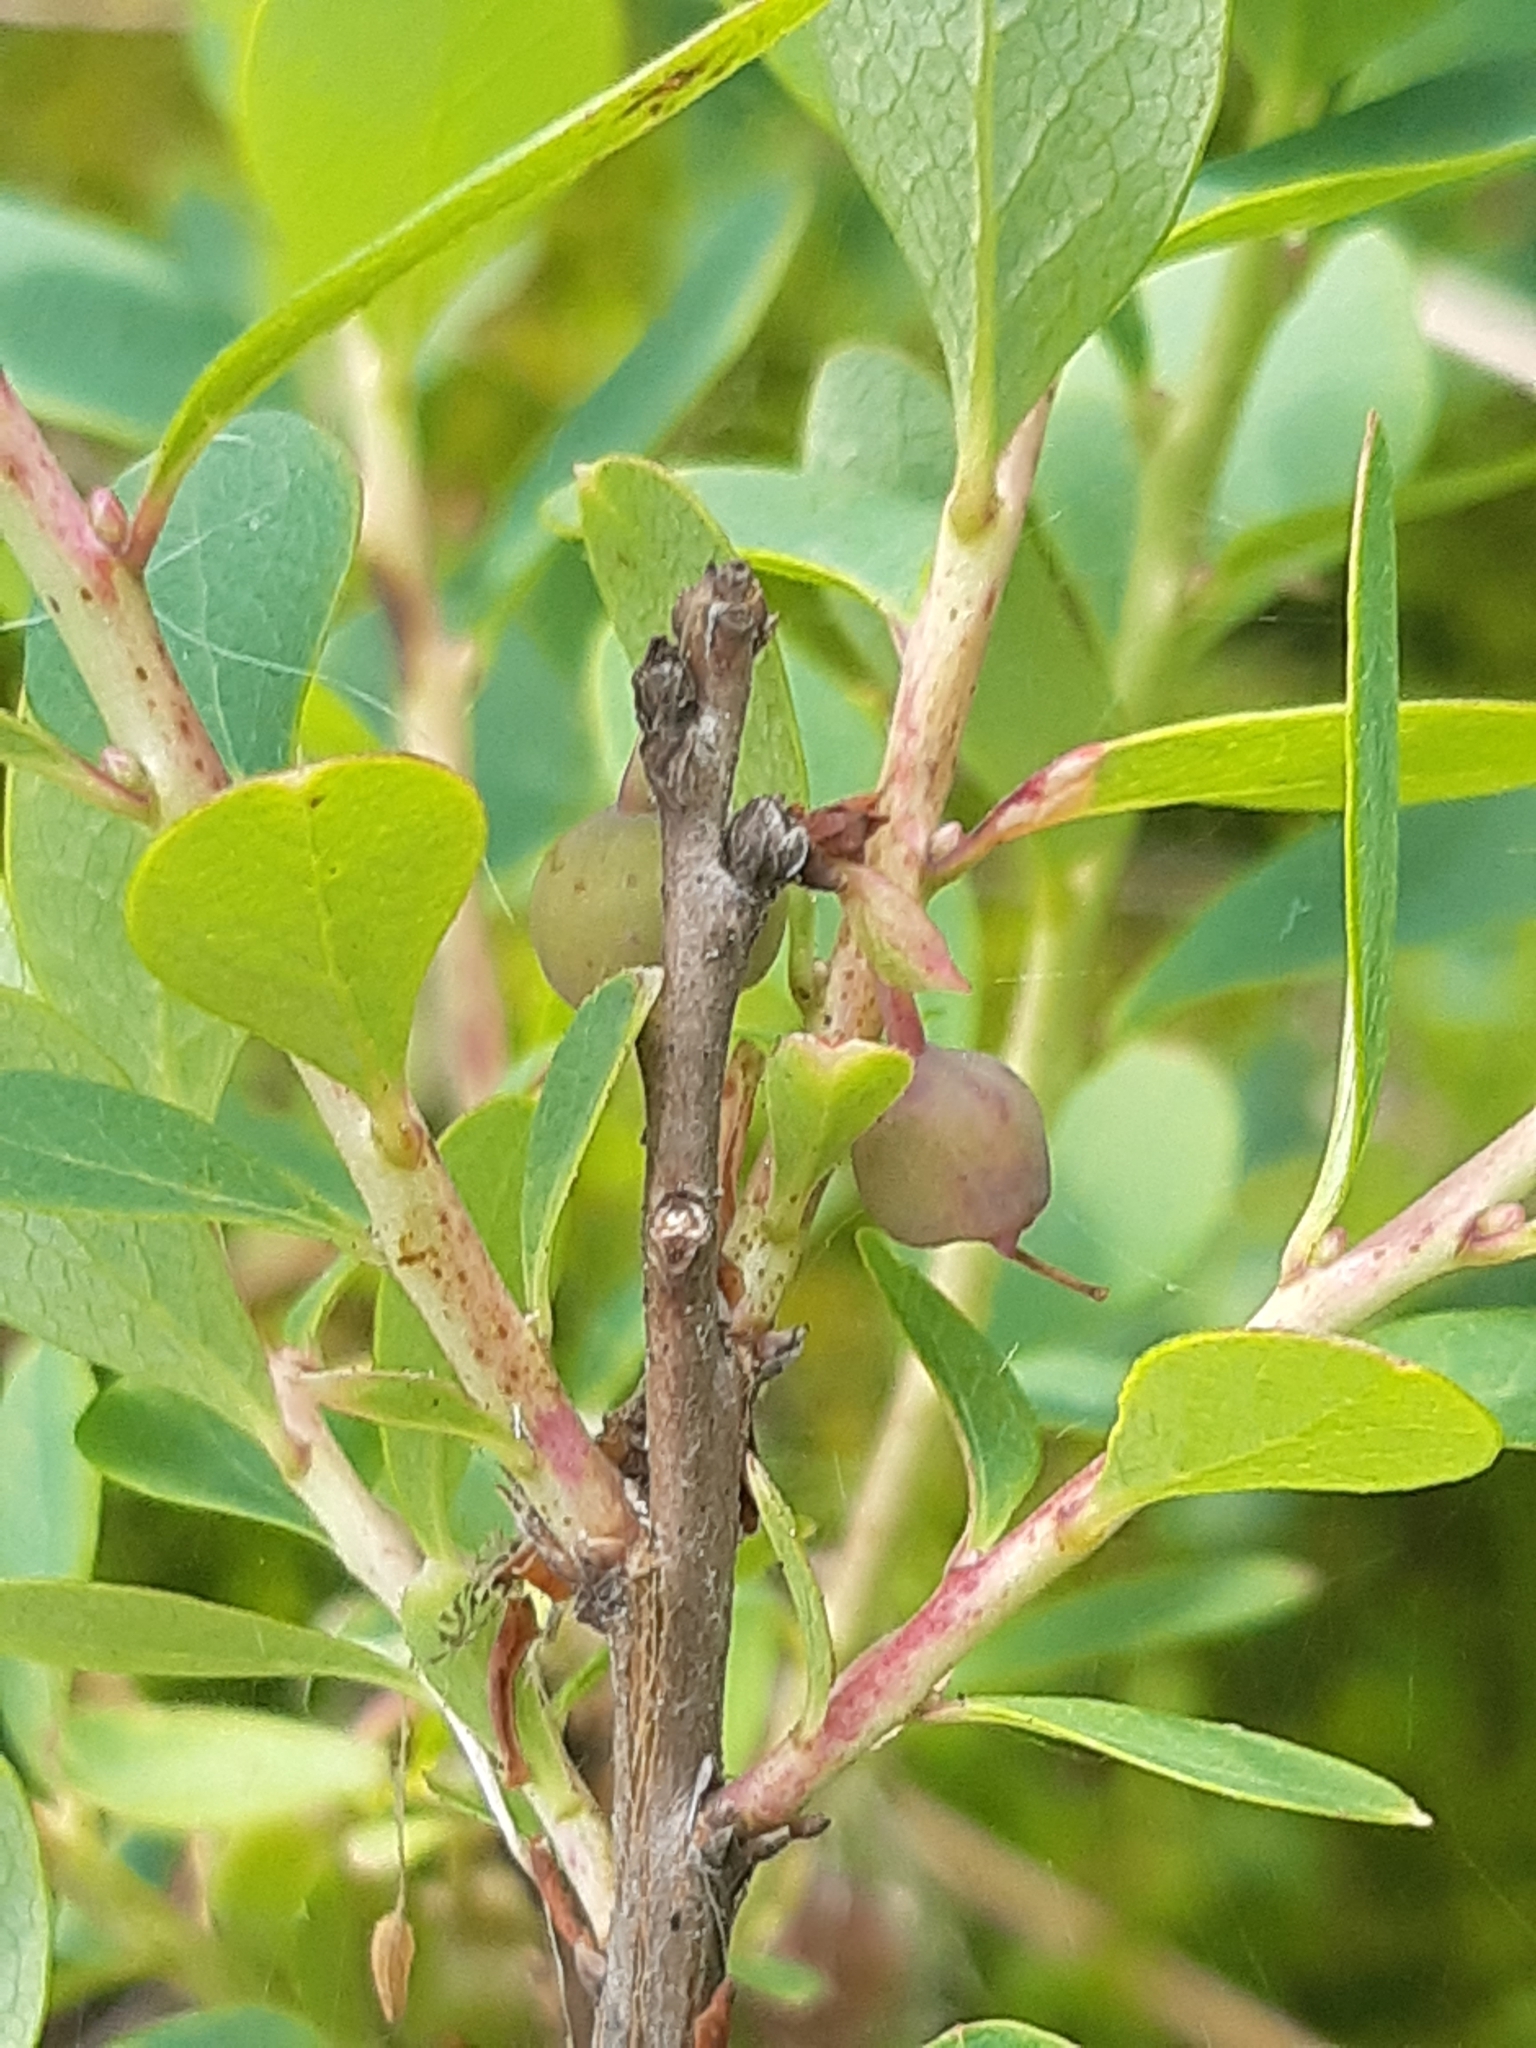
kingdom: Plantae
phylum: Tracheophyta
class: Magnoliopsida
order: Ericales
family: Ericaceae
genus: Vaccinium
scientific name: Vaccinium uliginosum
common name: Bog bilberry
